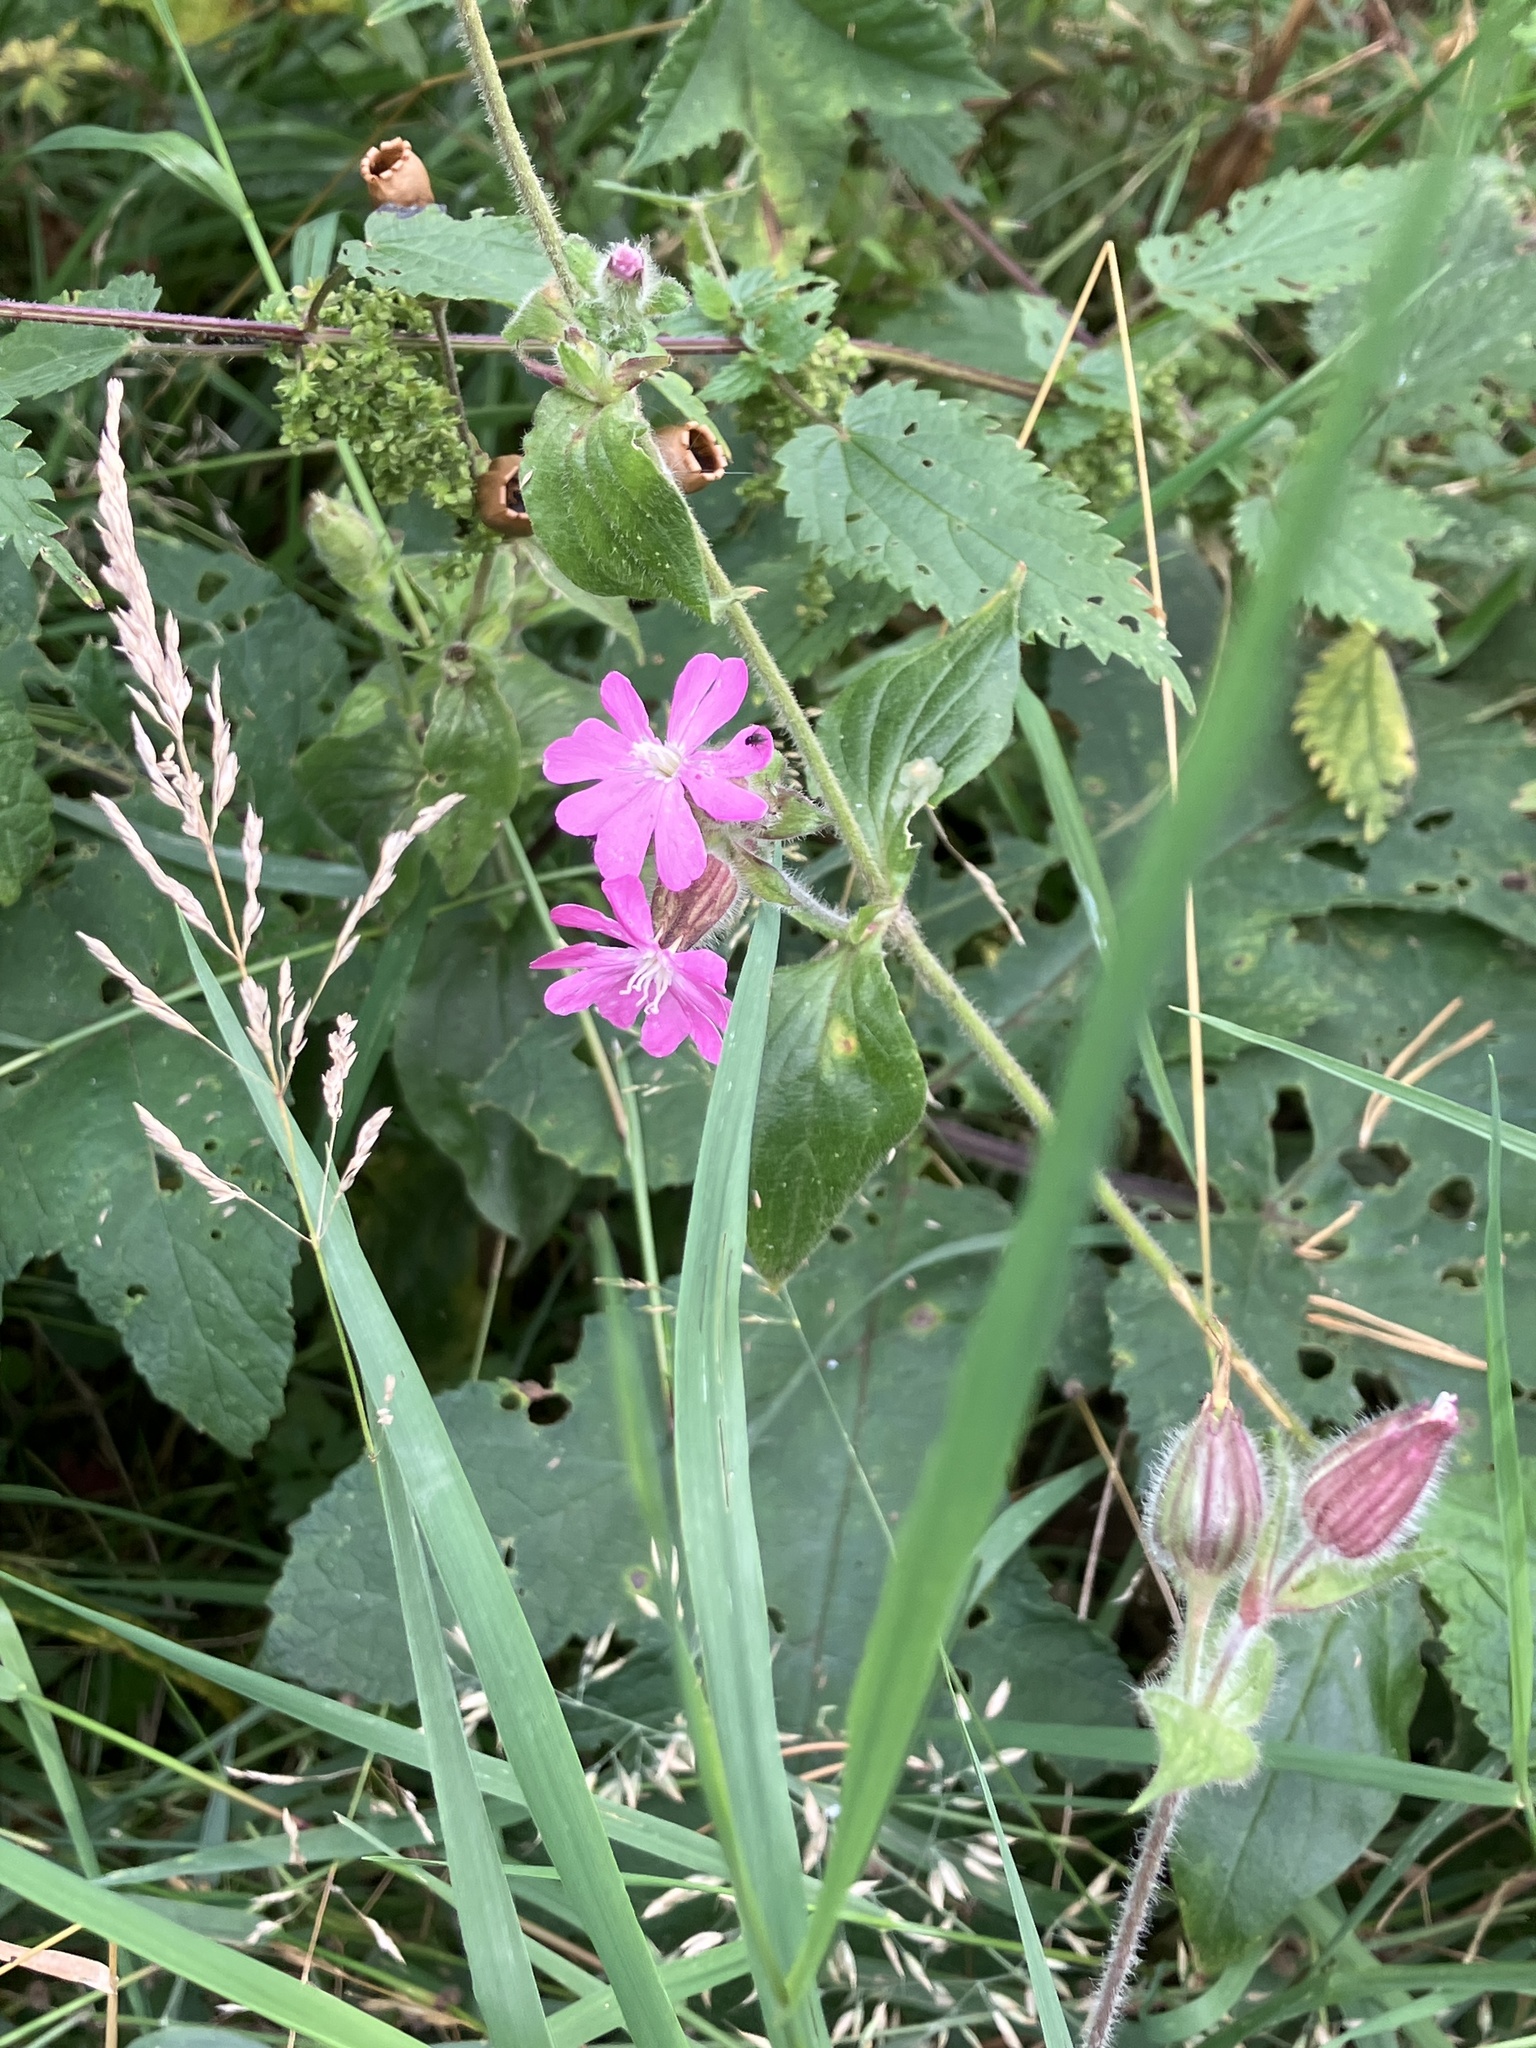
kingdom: Plantae
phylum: Tracheophyta
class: Magnoliopsida
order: Caryophyllales
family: Caryophyllaceae
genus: Silene
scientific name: Silene dioica
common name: Red campion
